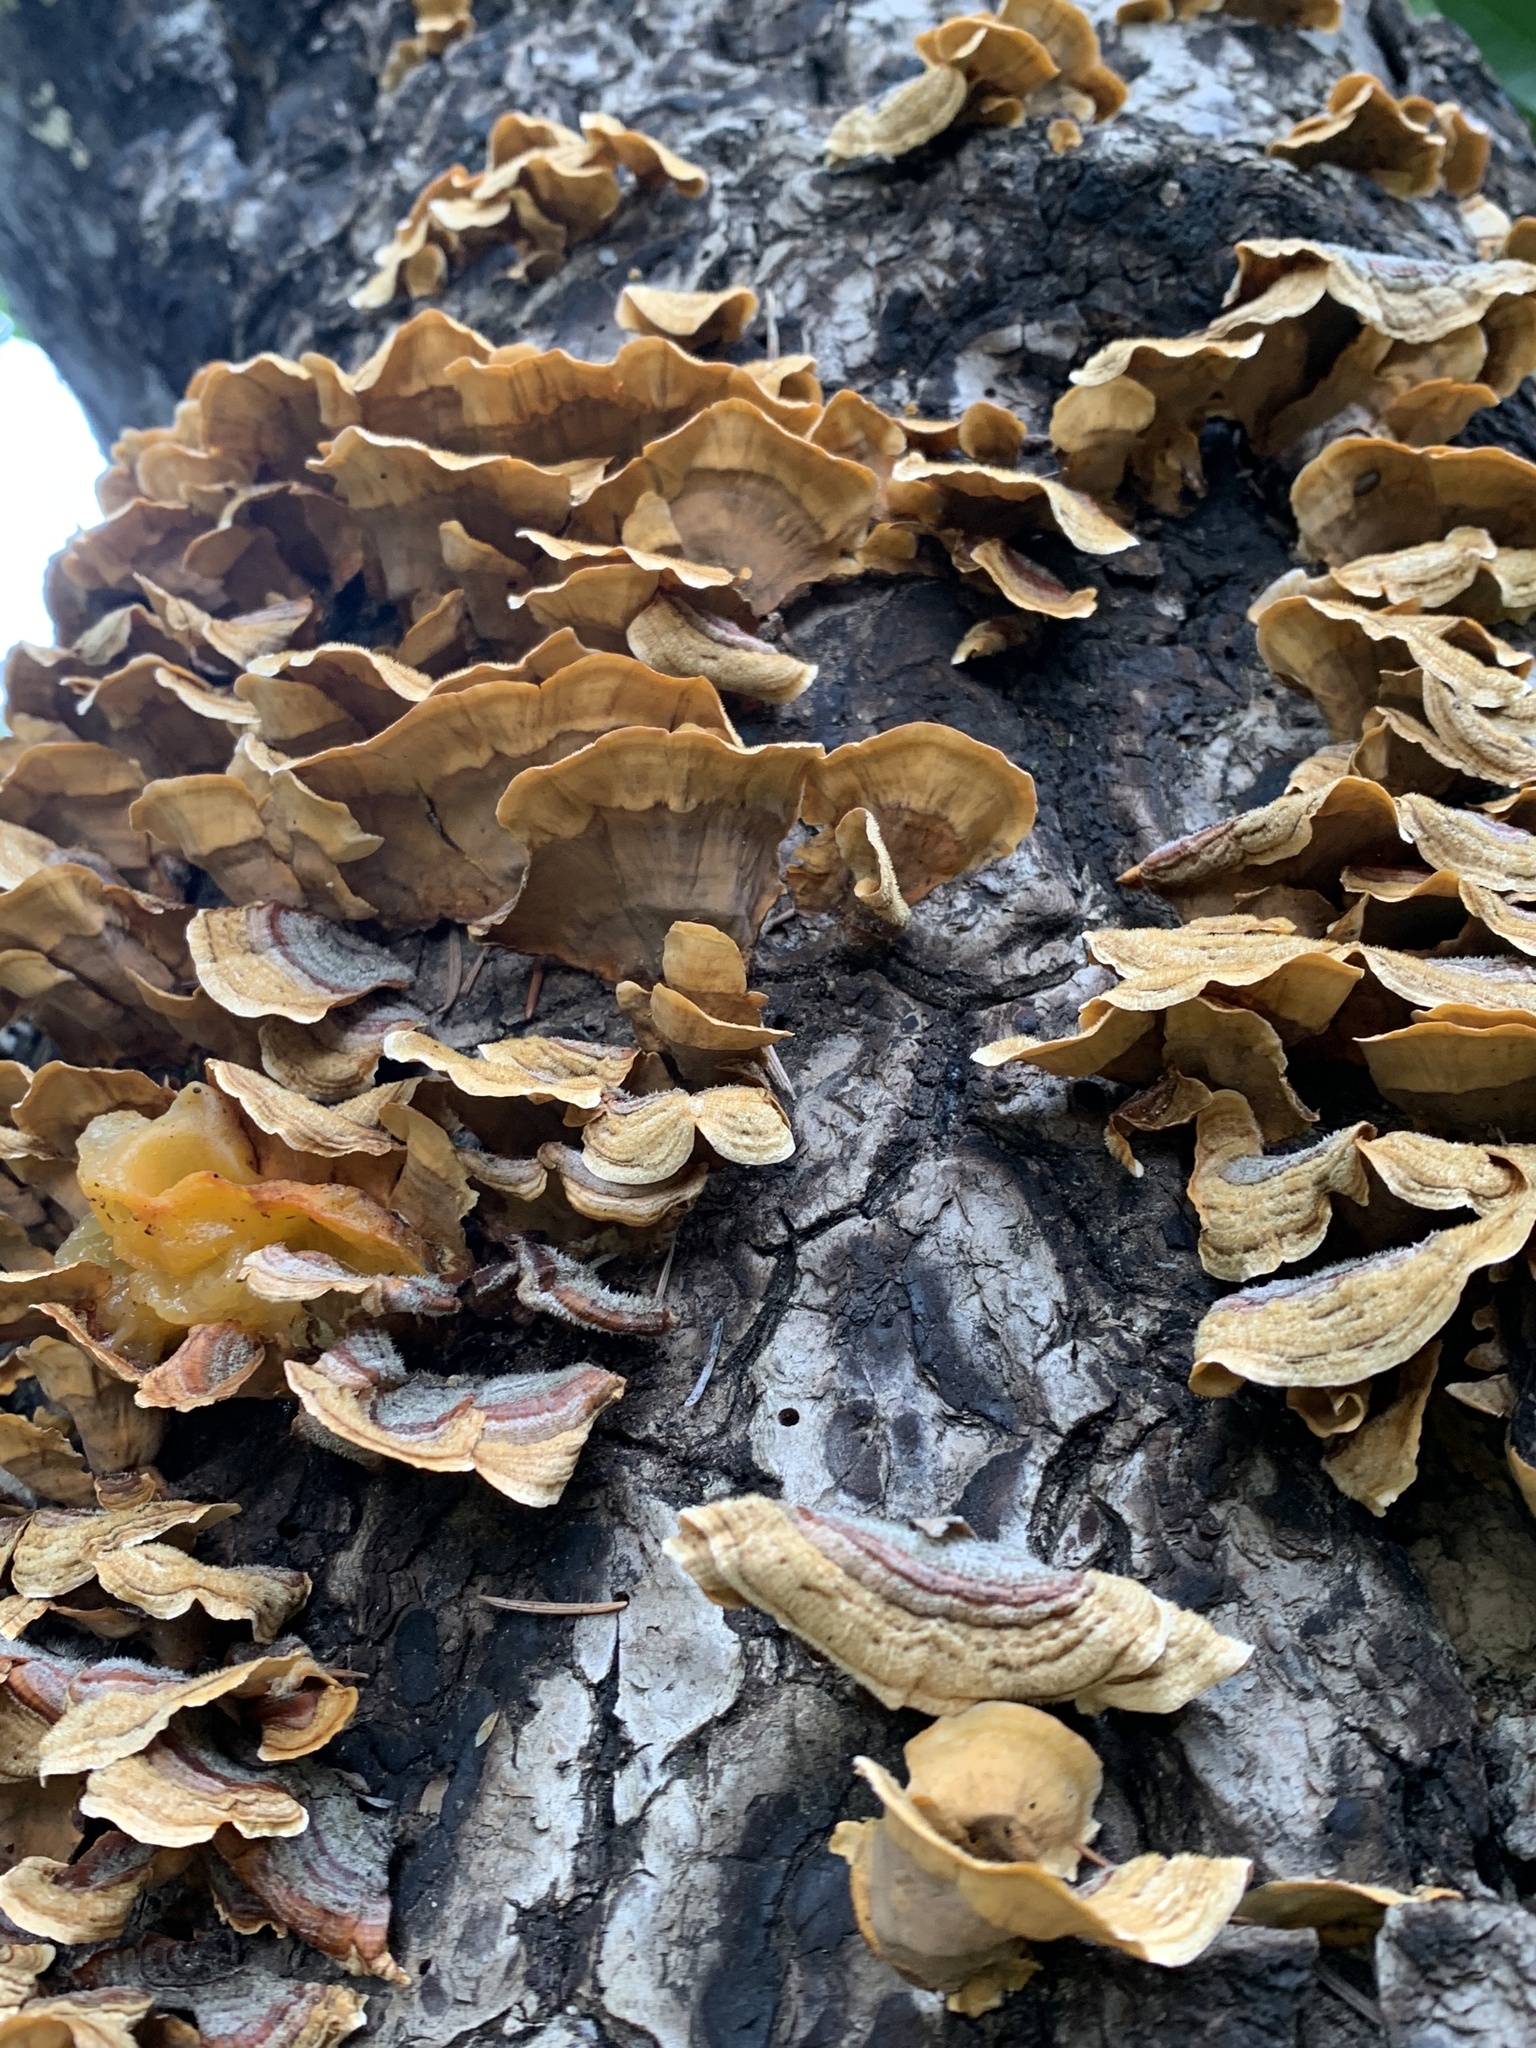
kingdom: Fungi
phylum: Basidiomycota
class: Agaricomycetes
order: Russulales
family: Stereaceae
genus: Stereum
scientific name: Stereum hirsutum
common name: Hairy curtain crust
